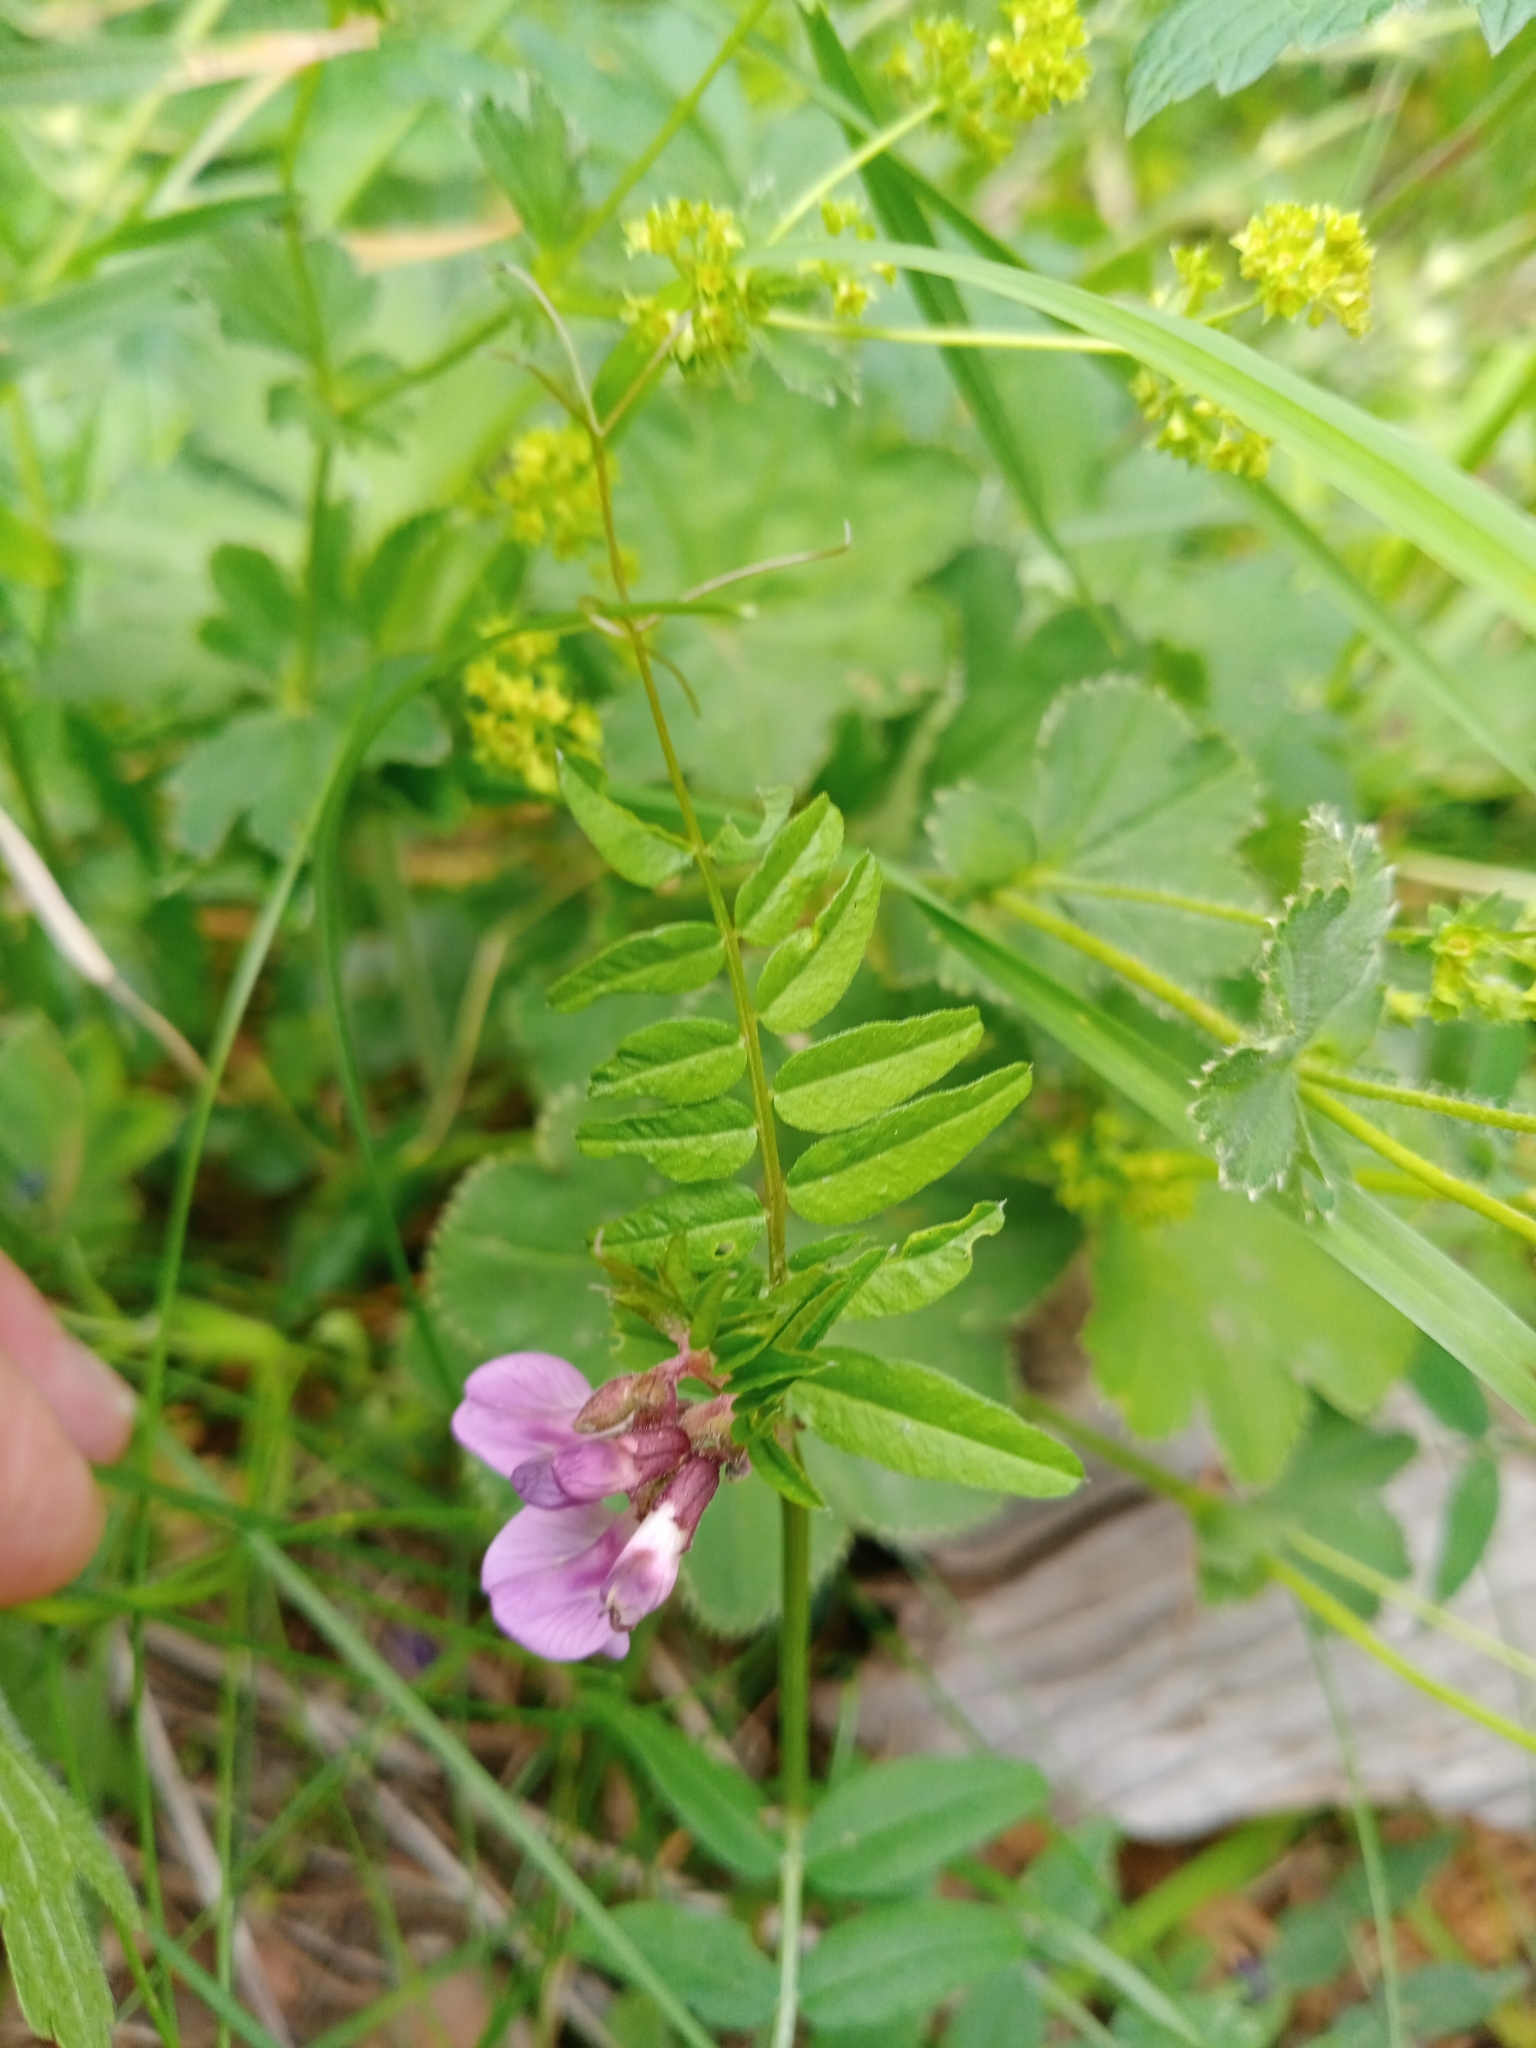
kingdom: Plantae
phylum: Tracheophyta
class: Magnoliopsida
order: Fabales
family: Fabaceae
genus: Vicia
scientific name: Vicia sepium
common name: Bush vetch
